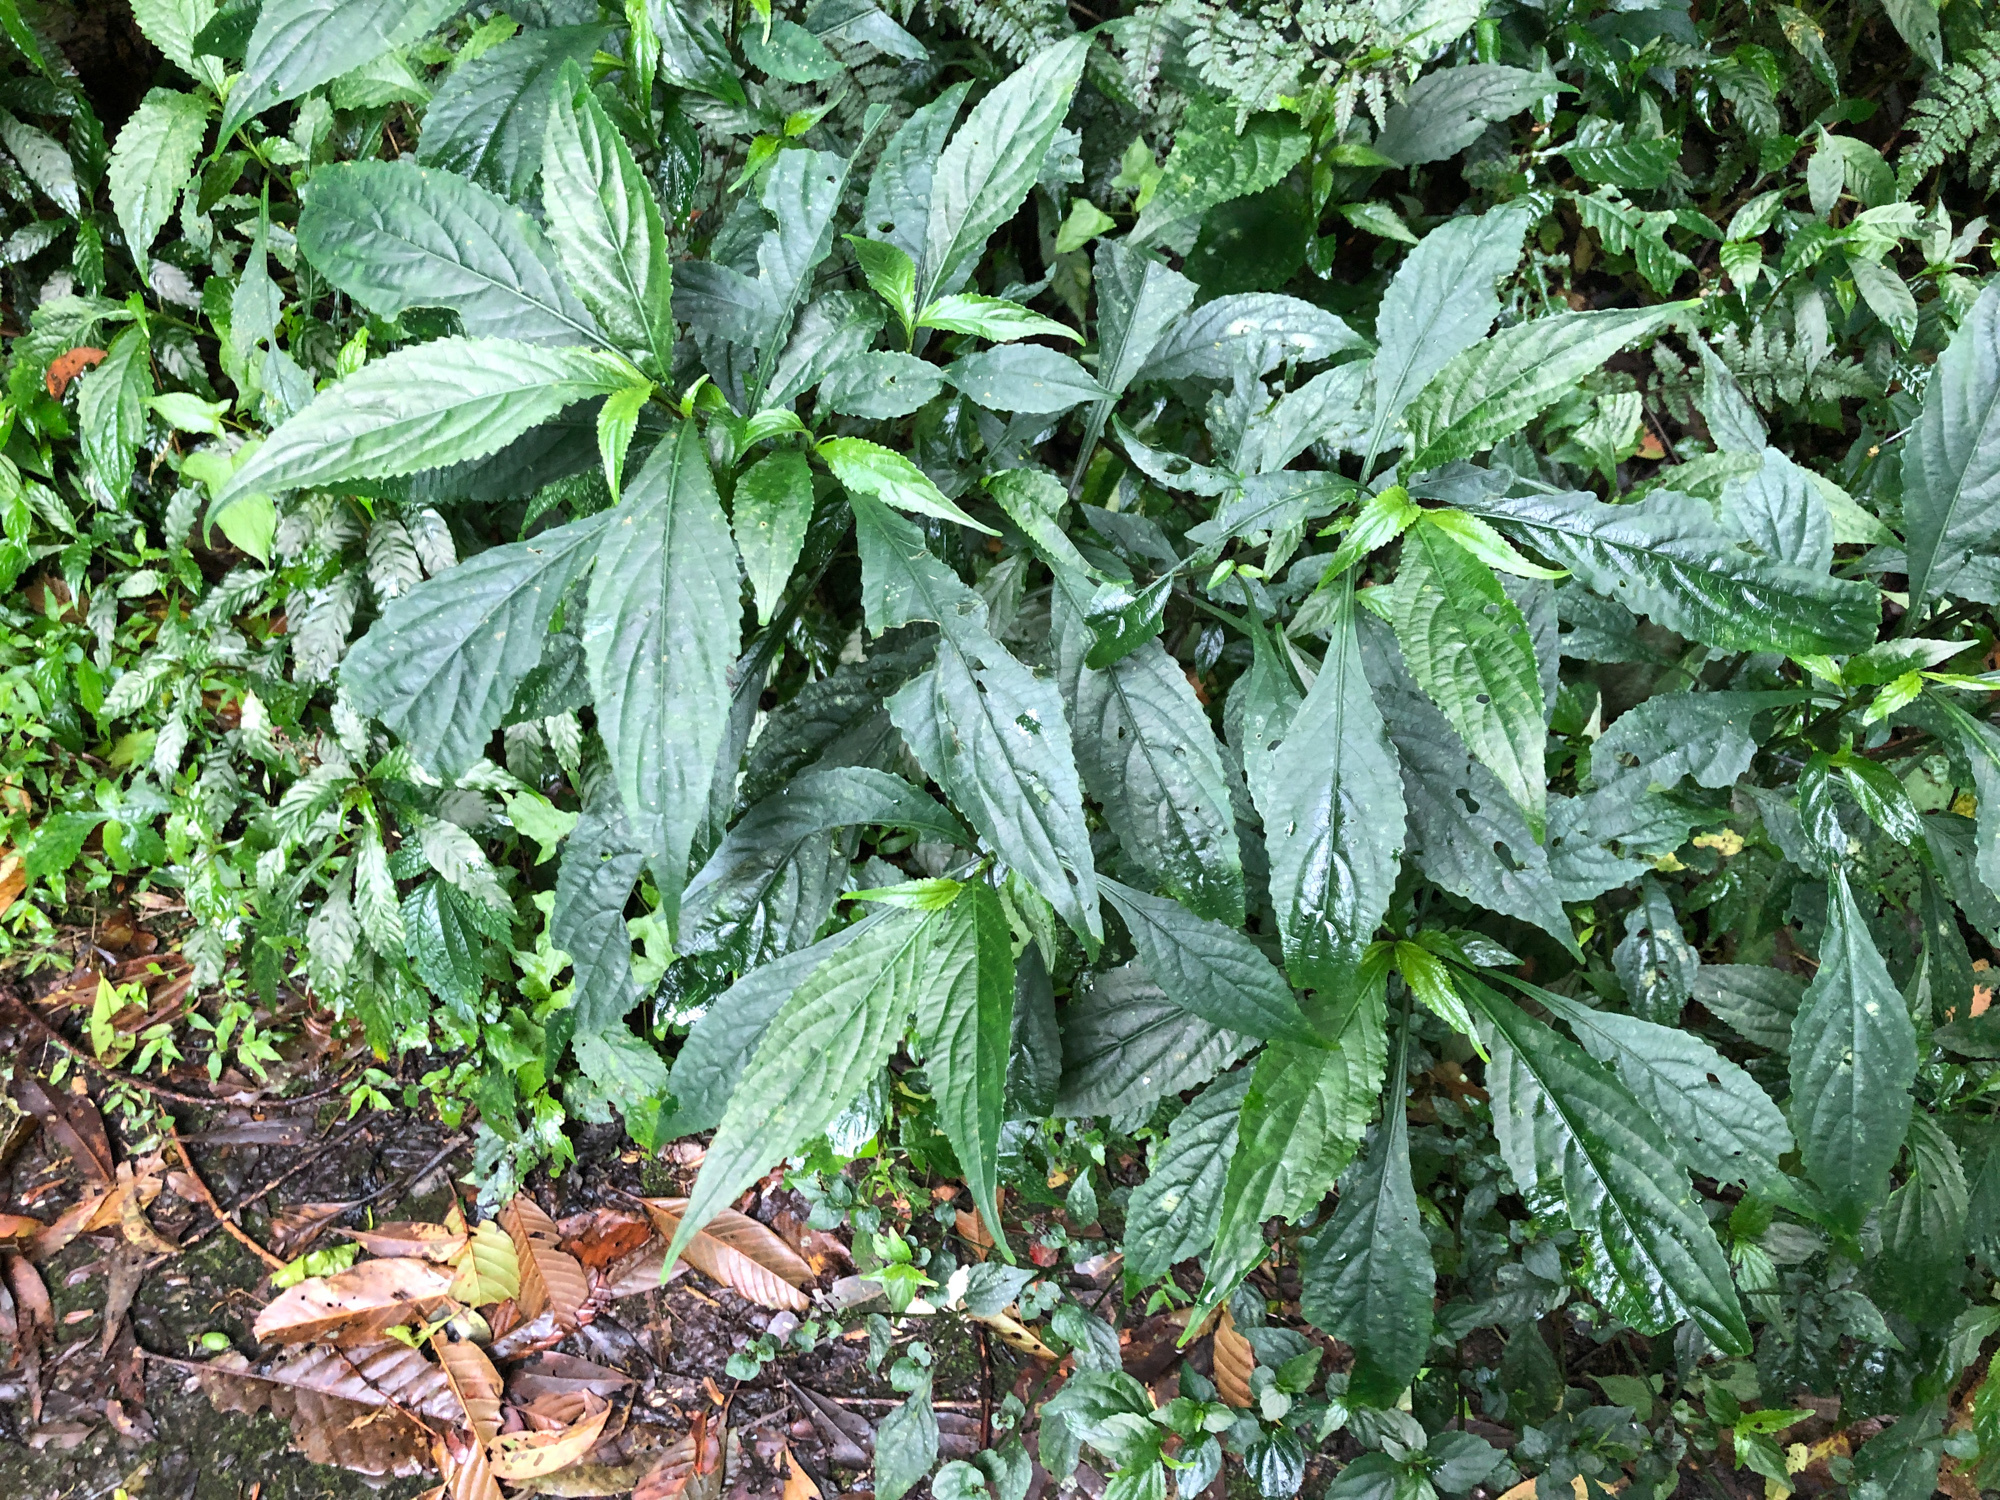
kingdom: Plantae
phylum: Tracheophyta
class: Magnoliopsida
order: Lamiales
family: Acanthaceae
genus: Strobilanthes
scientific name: Strobilanthes flexicaulis
